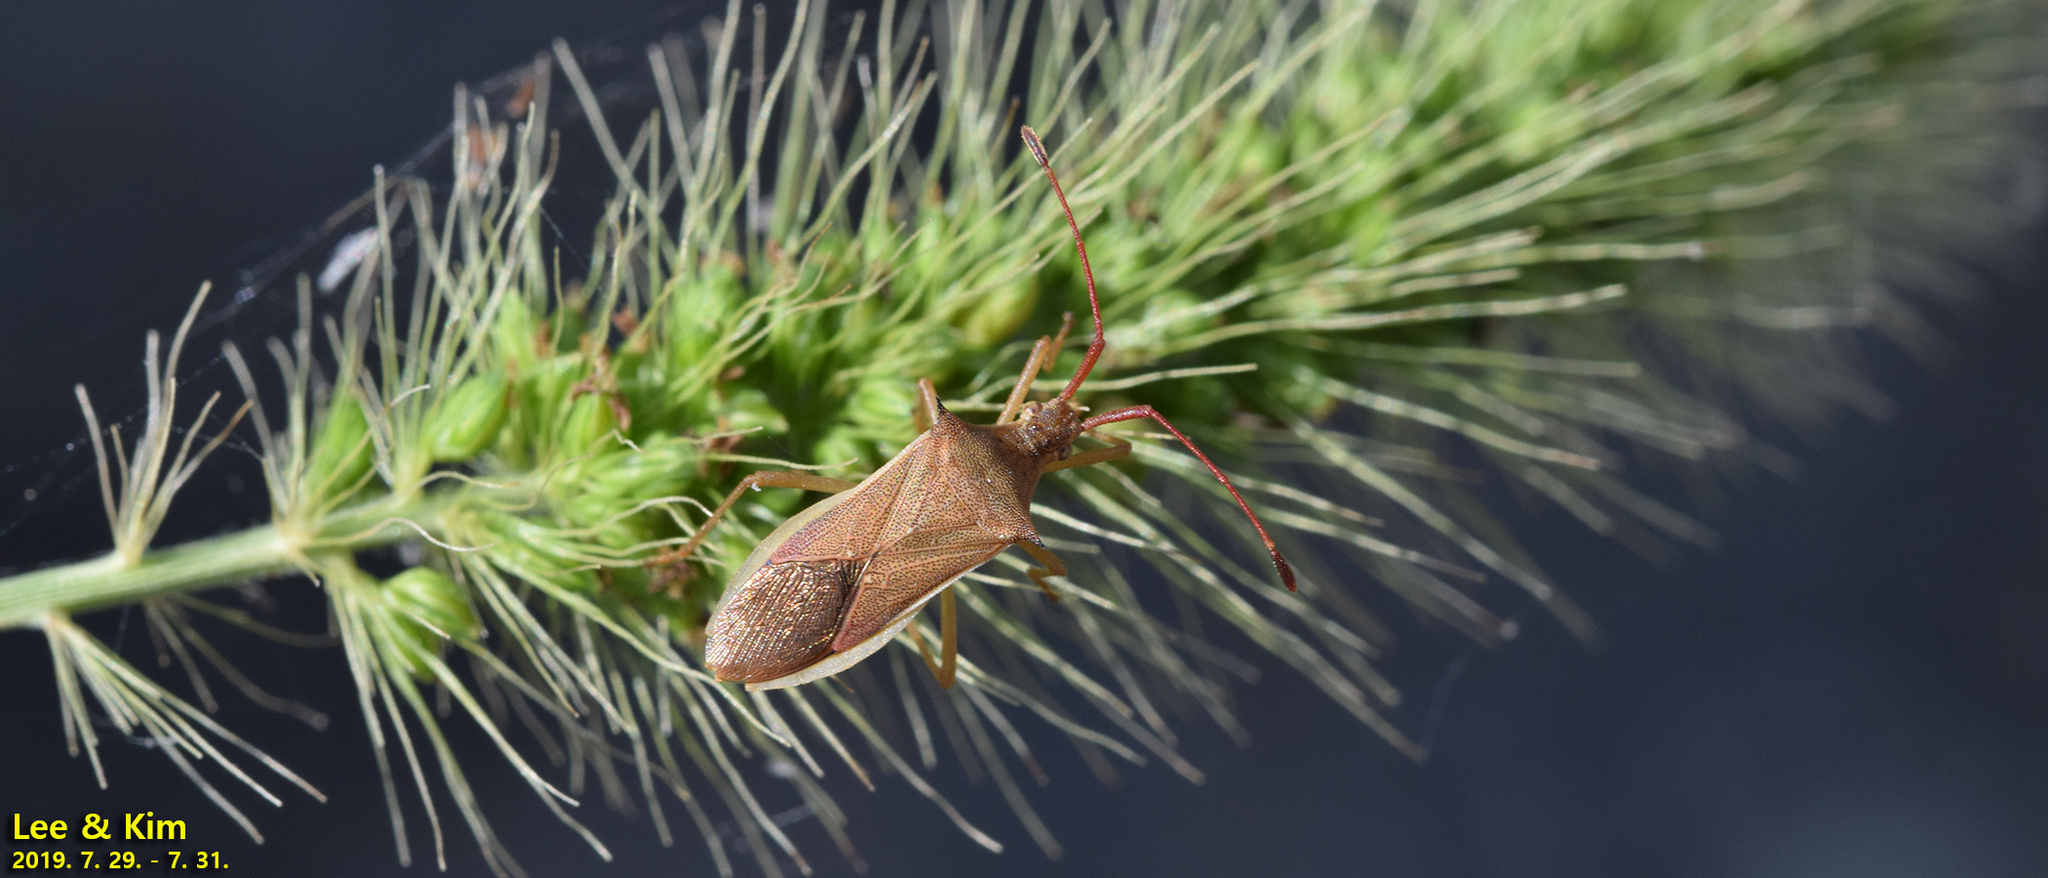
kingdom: Animalia
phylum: Arthropoda
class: Insecta
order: Hemiptera
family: Coreidae
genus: Cletus
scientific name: Cletus punctiger
